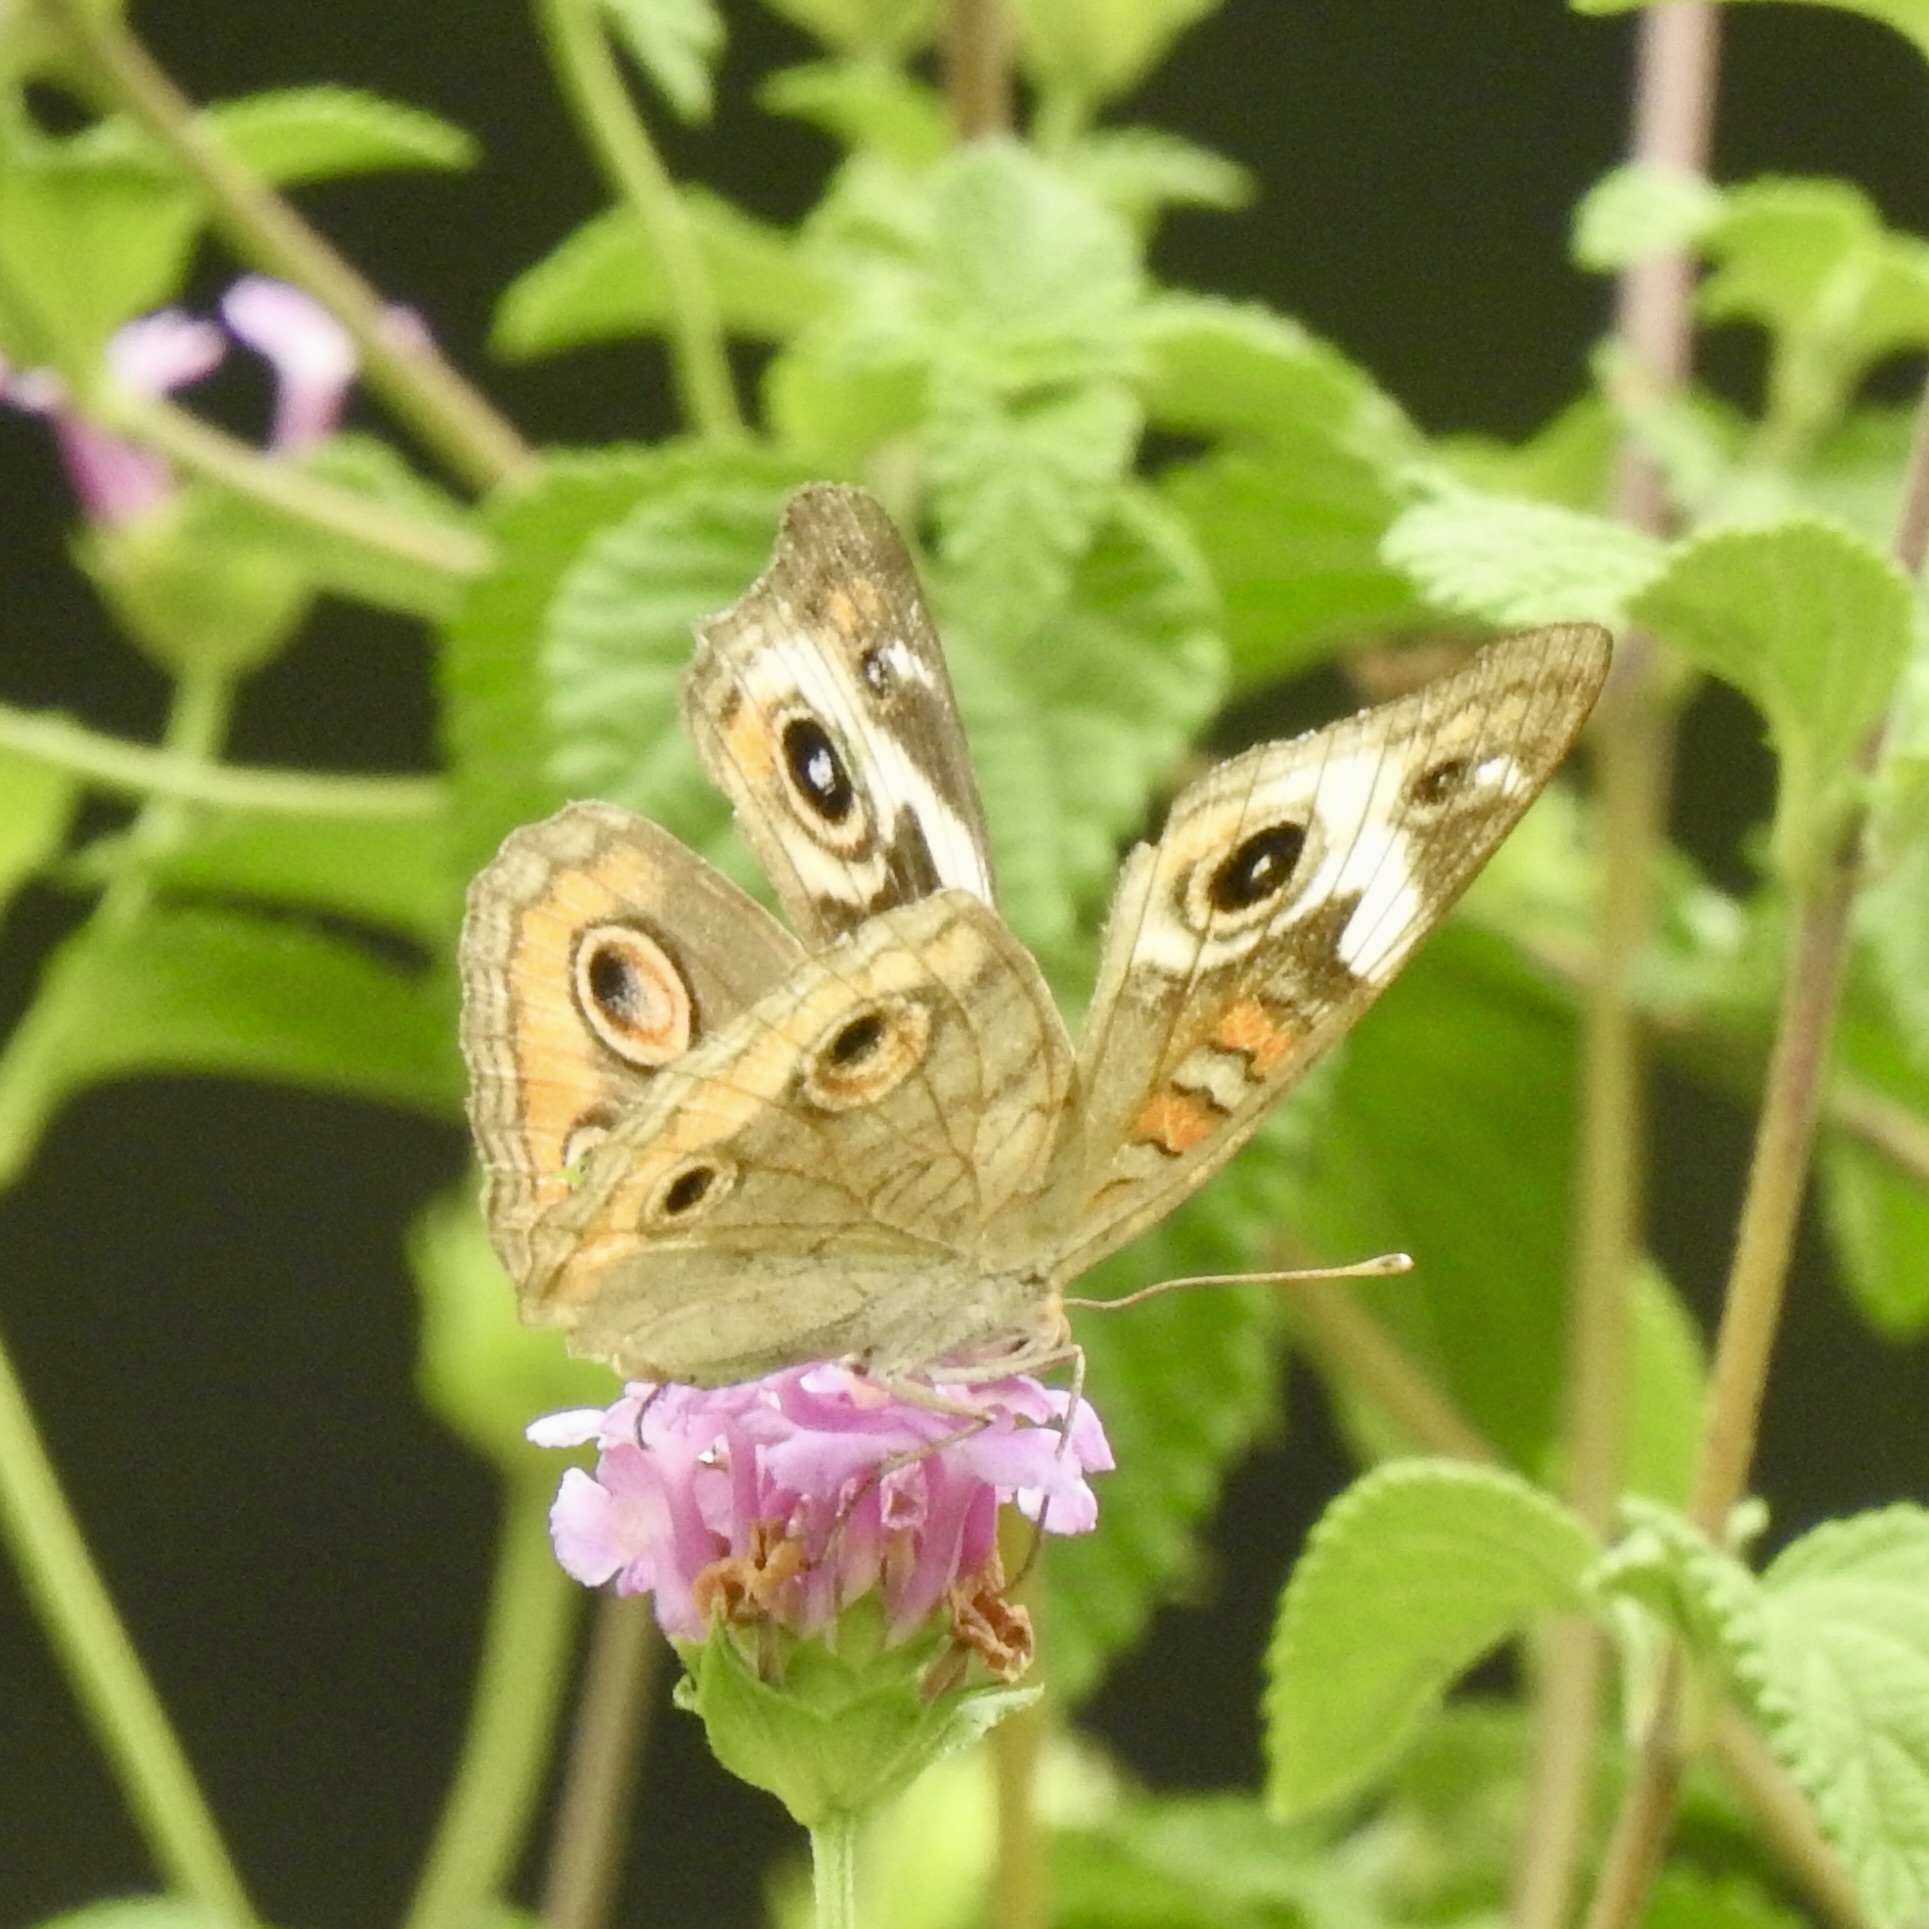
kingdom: Animalia
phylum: Arthropoda
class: Insecta
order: Lepidoptera
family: Nymphalidae
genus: Junonia
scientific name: Junonia coenia
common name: Common buckeye
